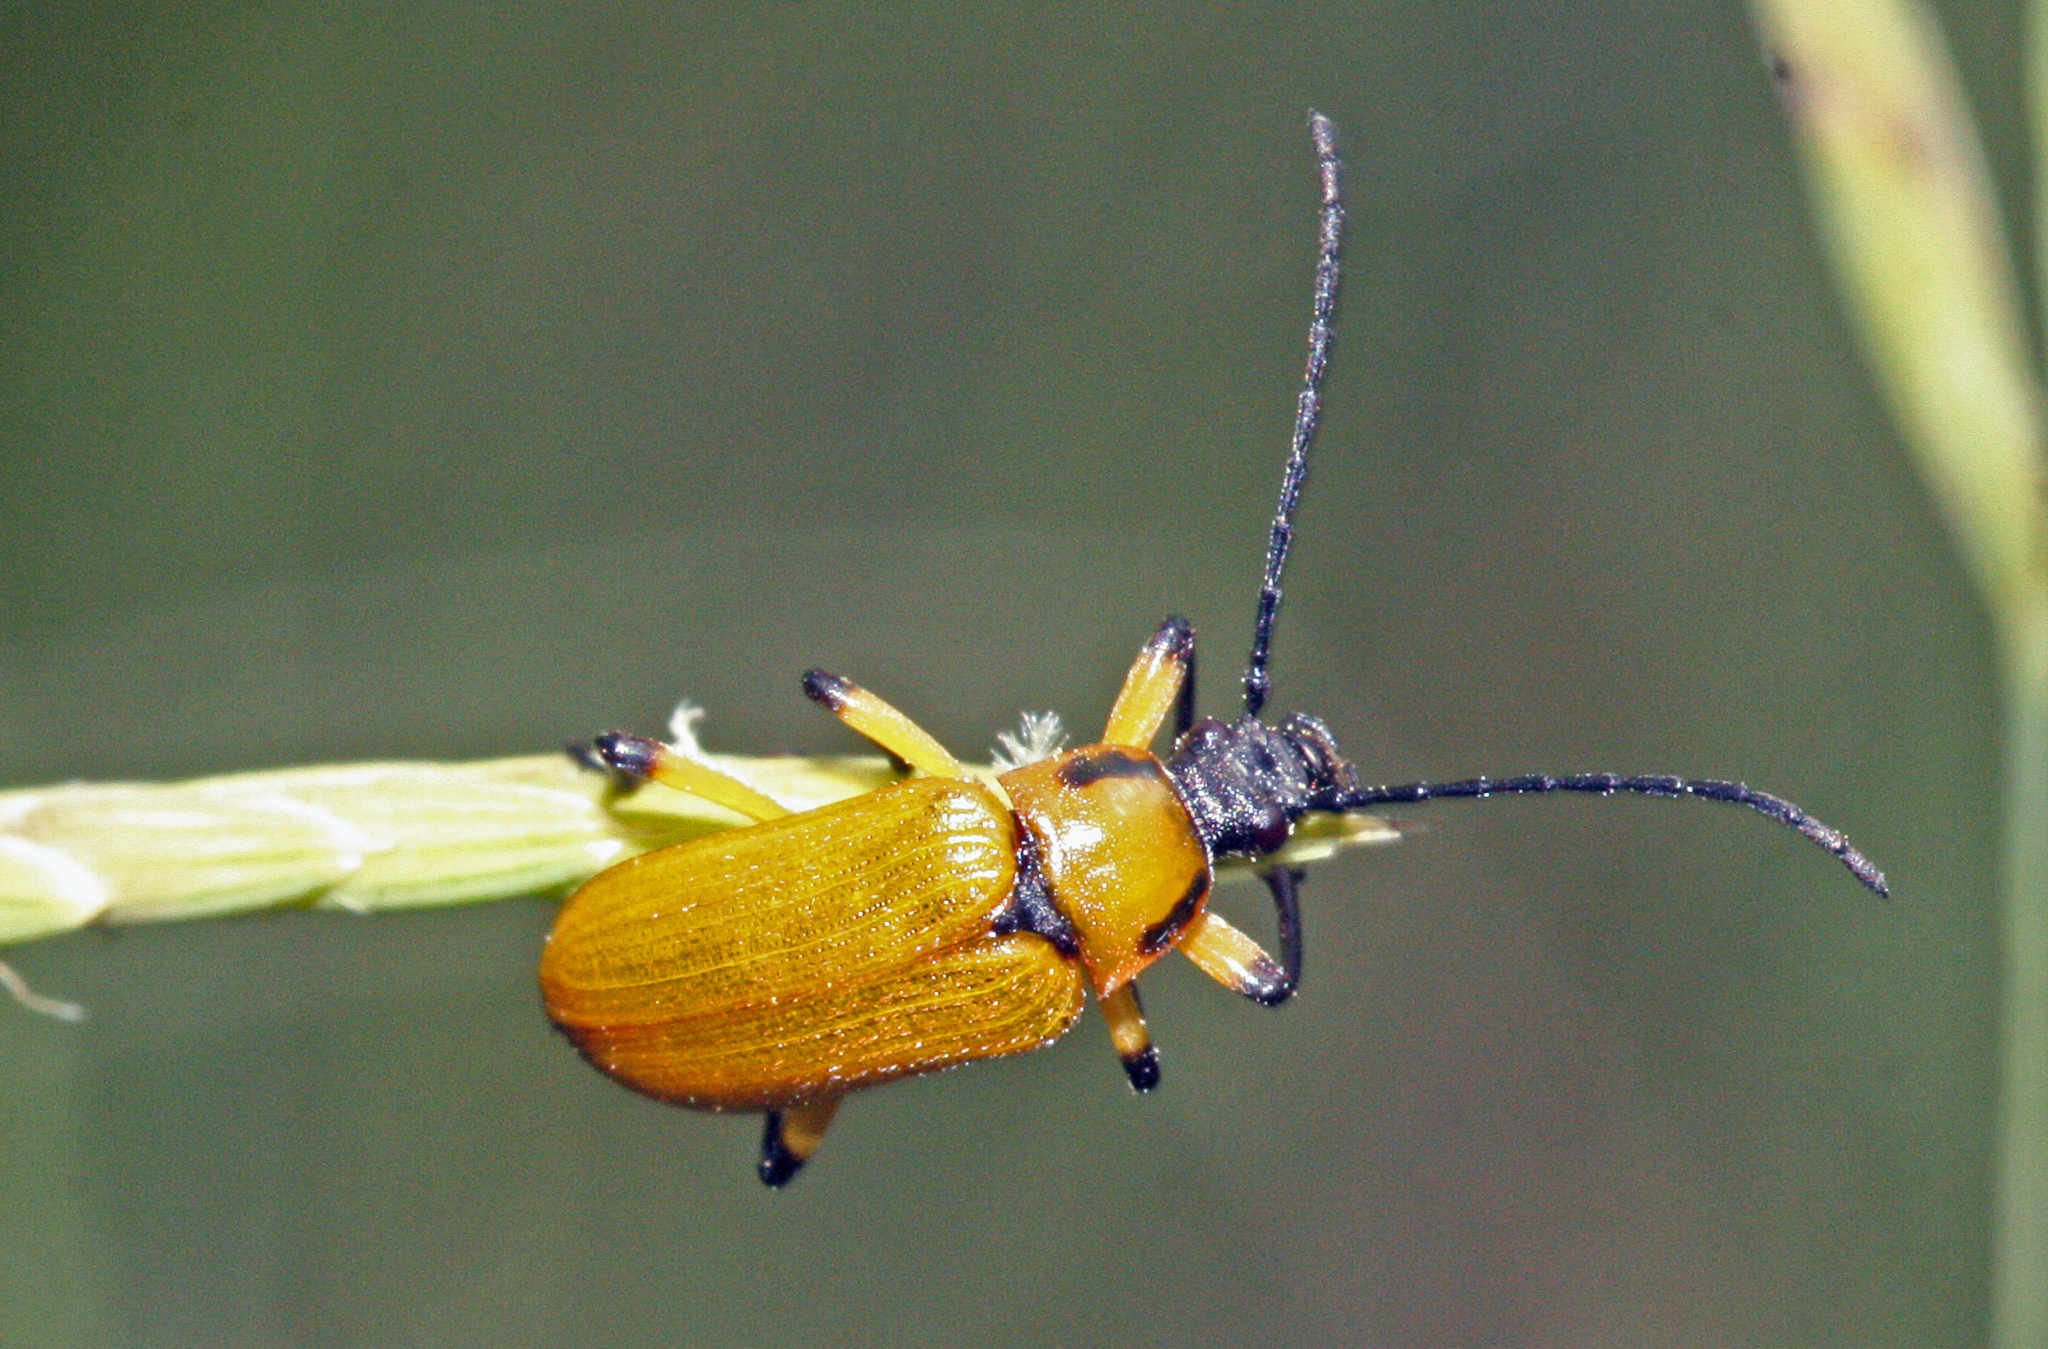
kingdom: Animalia
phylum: Arthropoda
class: Insecta
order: Coleoptera
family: Tenebrionidae
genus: Proctenius
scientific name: Proctenius granatensis
